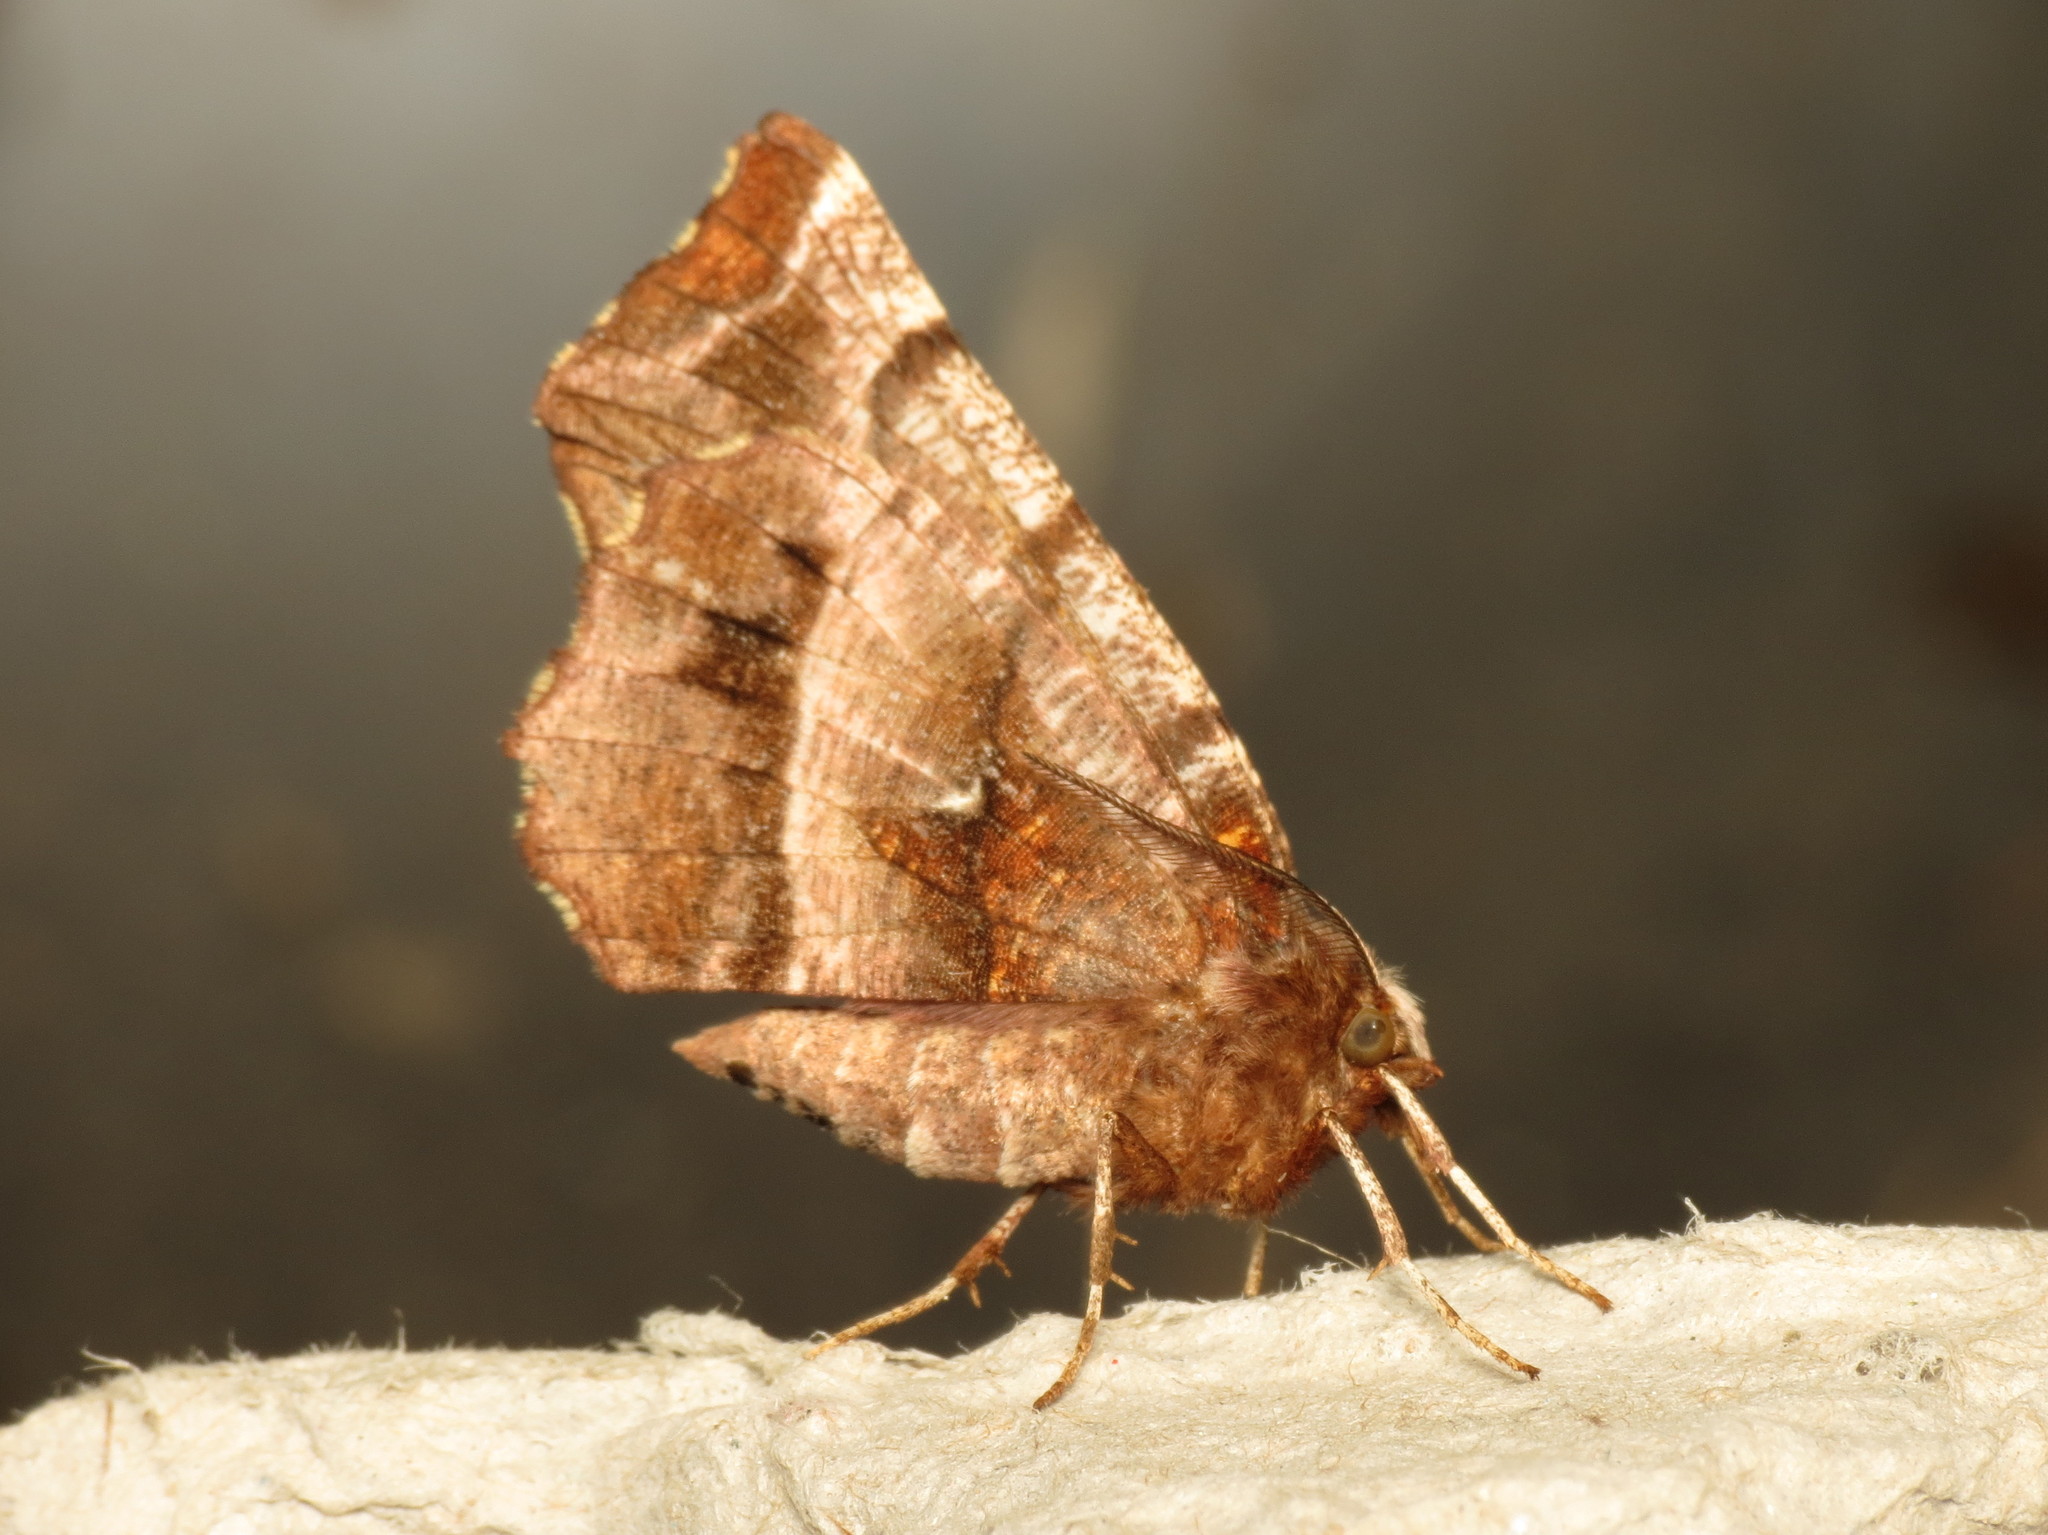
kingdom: Animalia
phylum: Arthropoda
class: Insecta
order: Lepidoptera
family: Geometridae
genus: Selenia
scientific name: Selenia dentaria
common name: Early thorn
